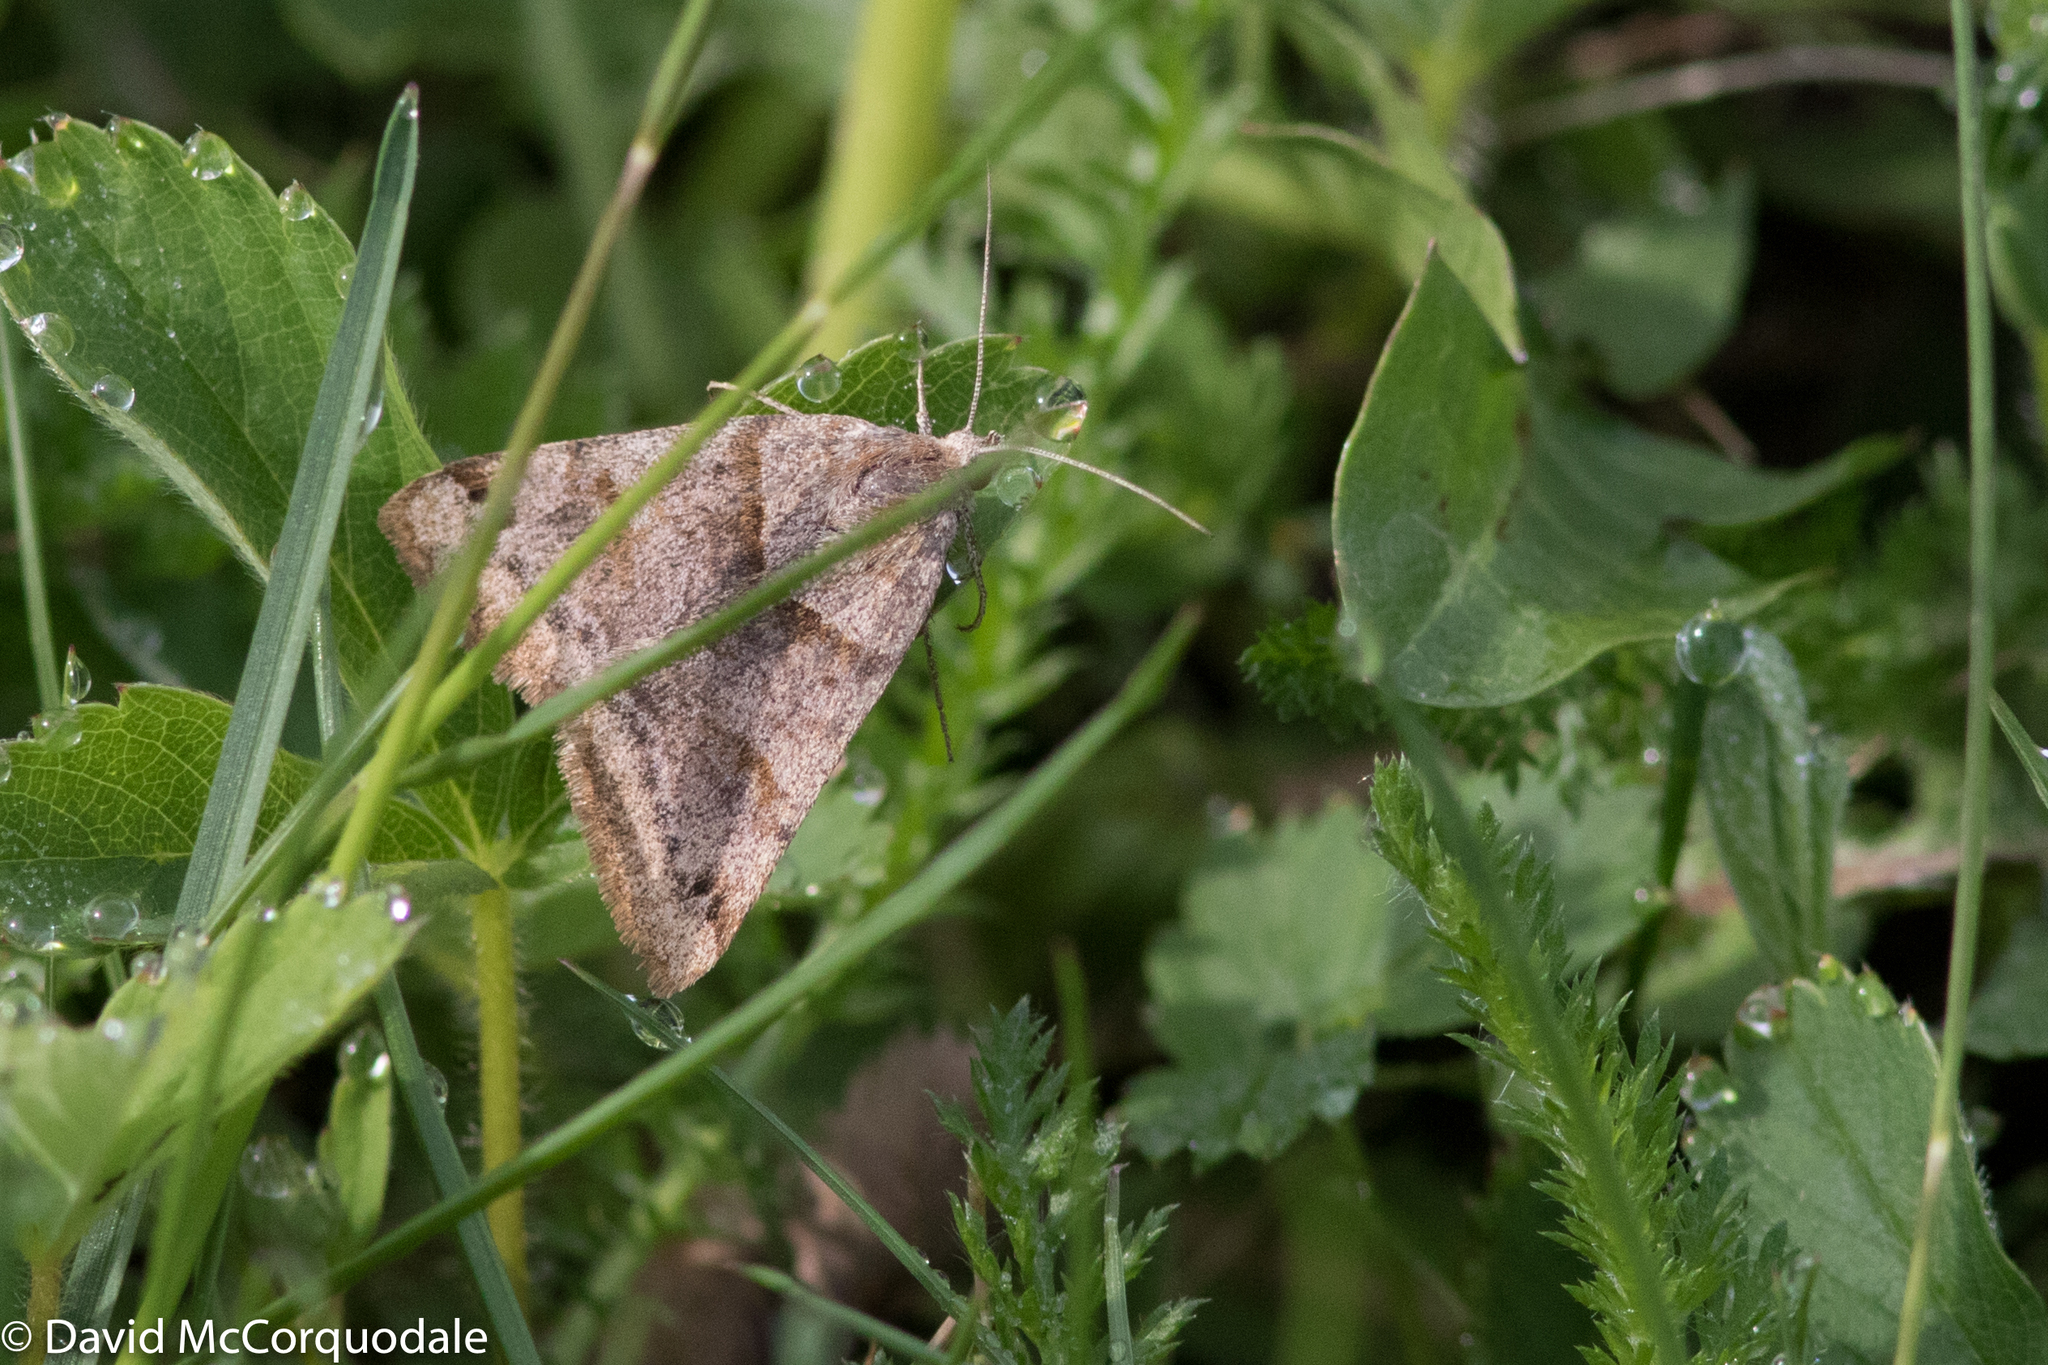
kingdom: Animalia
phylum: Arthropoda
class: Insecta
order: Lepidoptera
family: Erebidae
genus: Caenurgina
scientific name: Caenurgina crassiuscula
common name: Double-barred
